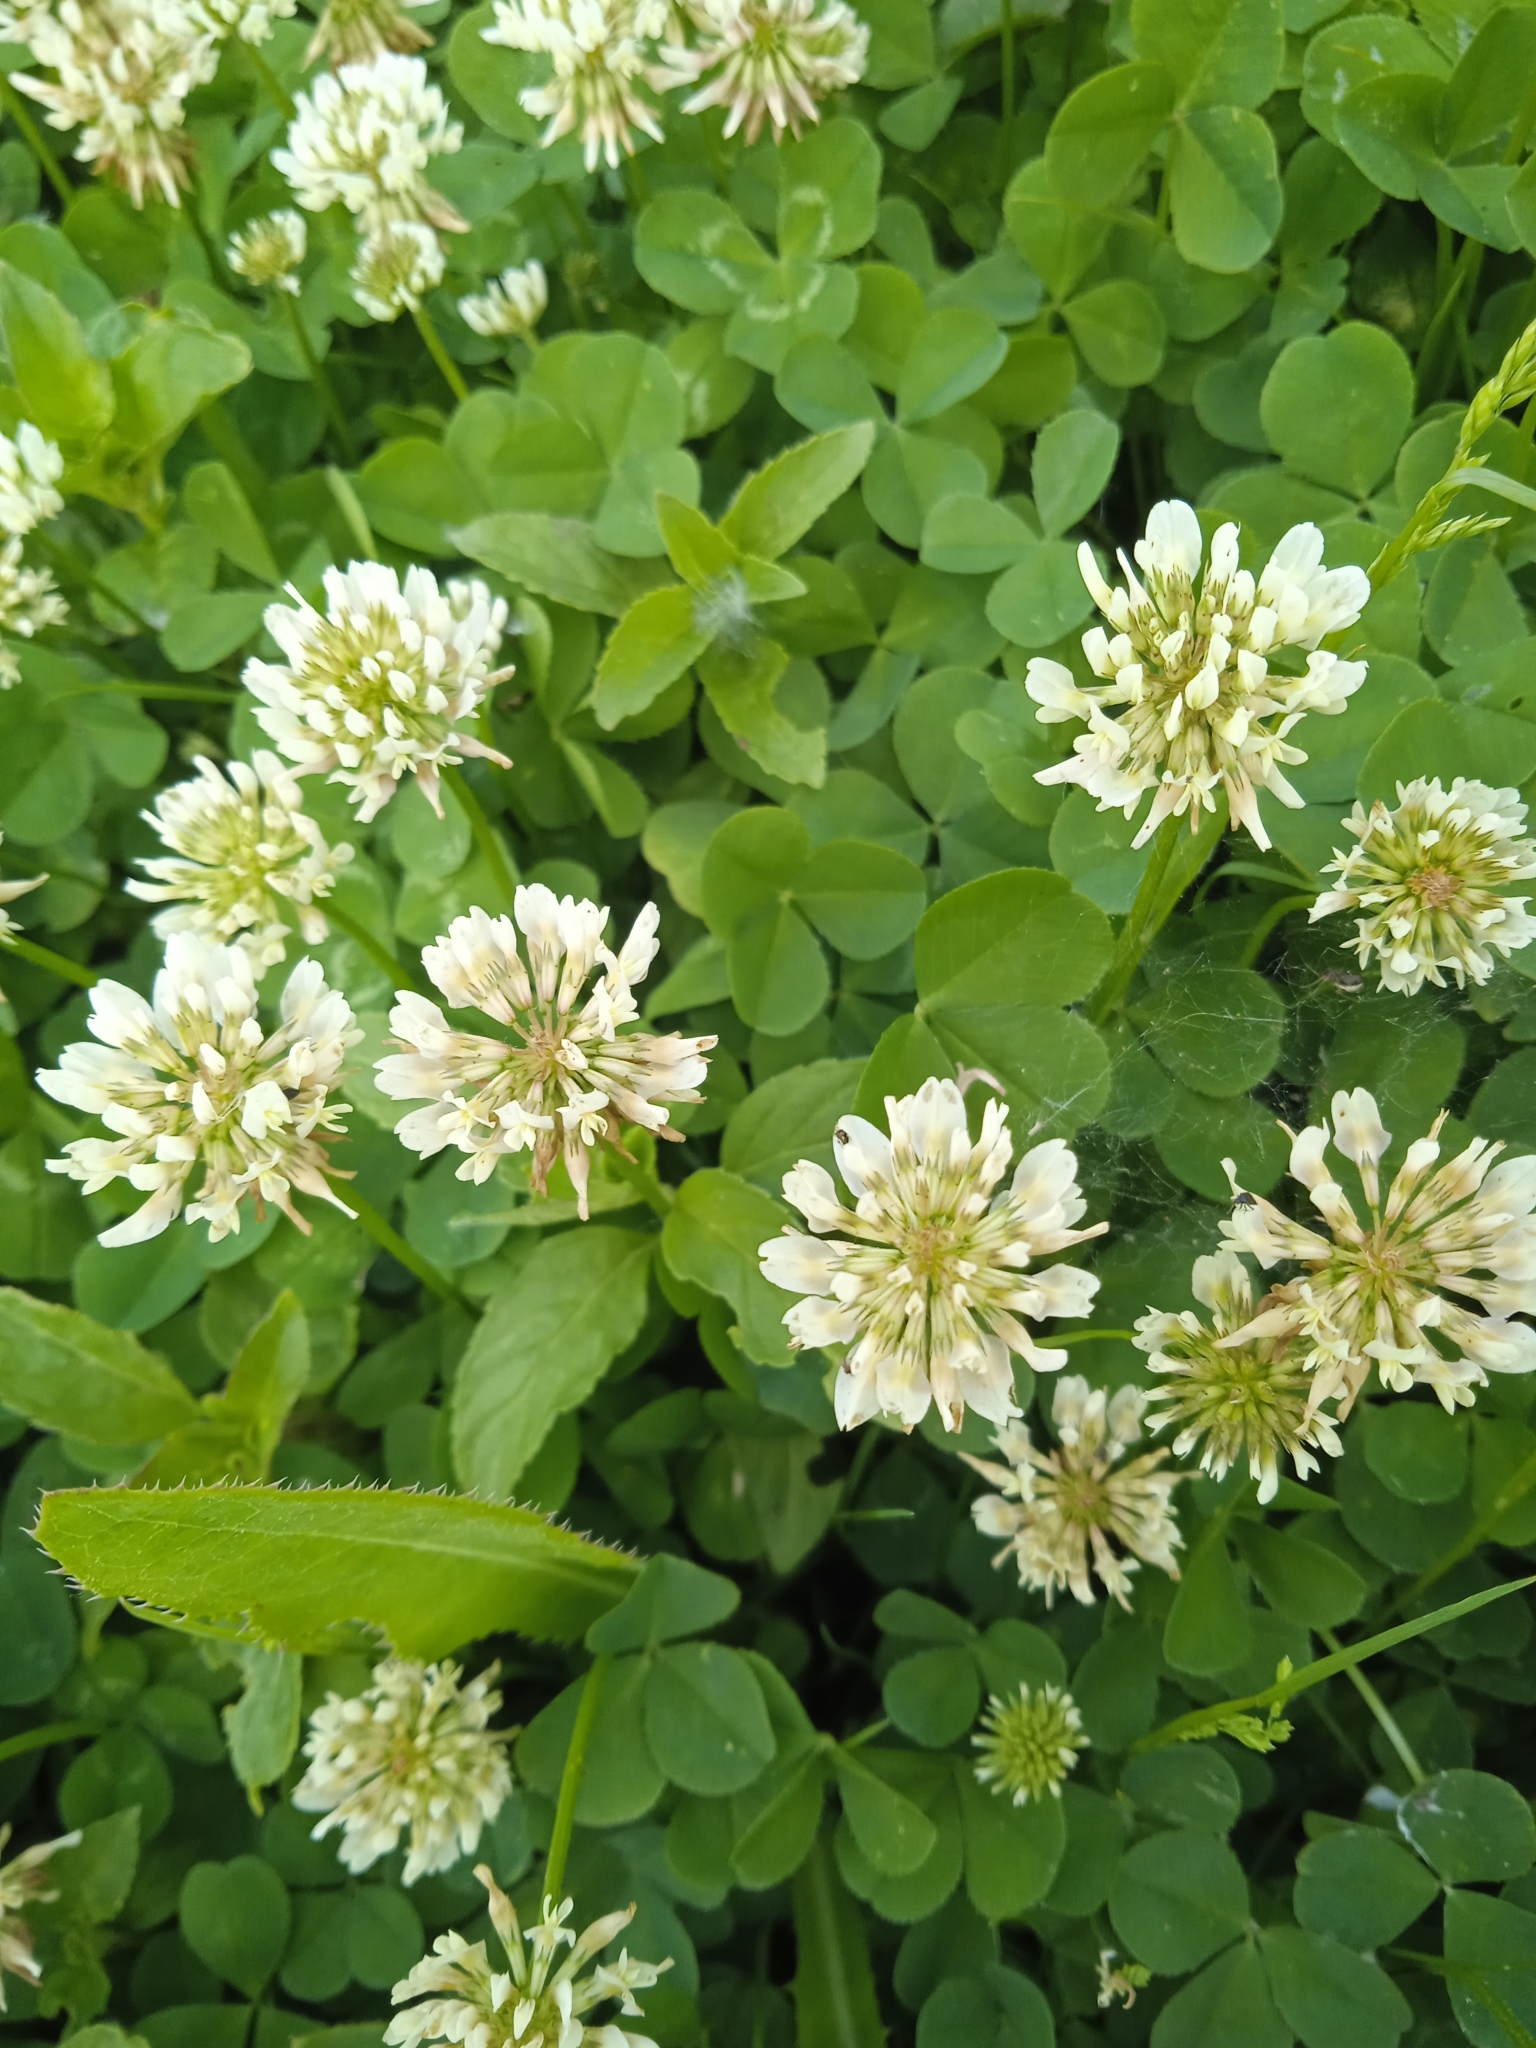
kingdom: Plantae
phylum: Tracheophyta
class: Magnoliopsida
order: Fabales
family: Fabaceae
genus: Trifolium
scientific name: Trifolium repens
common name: White clover
